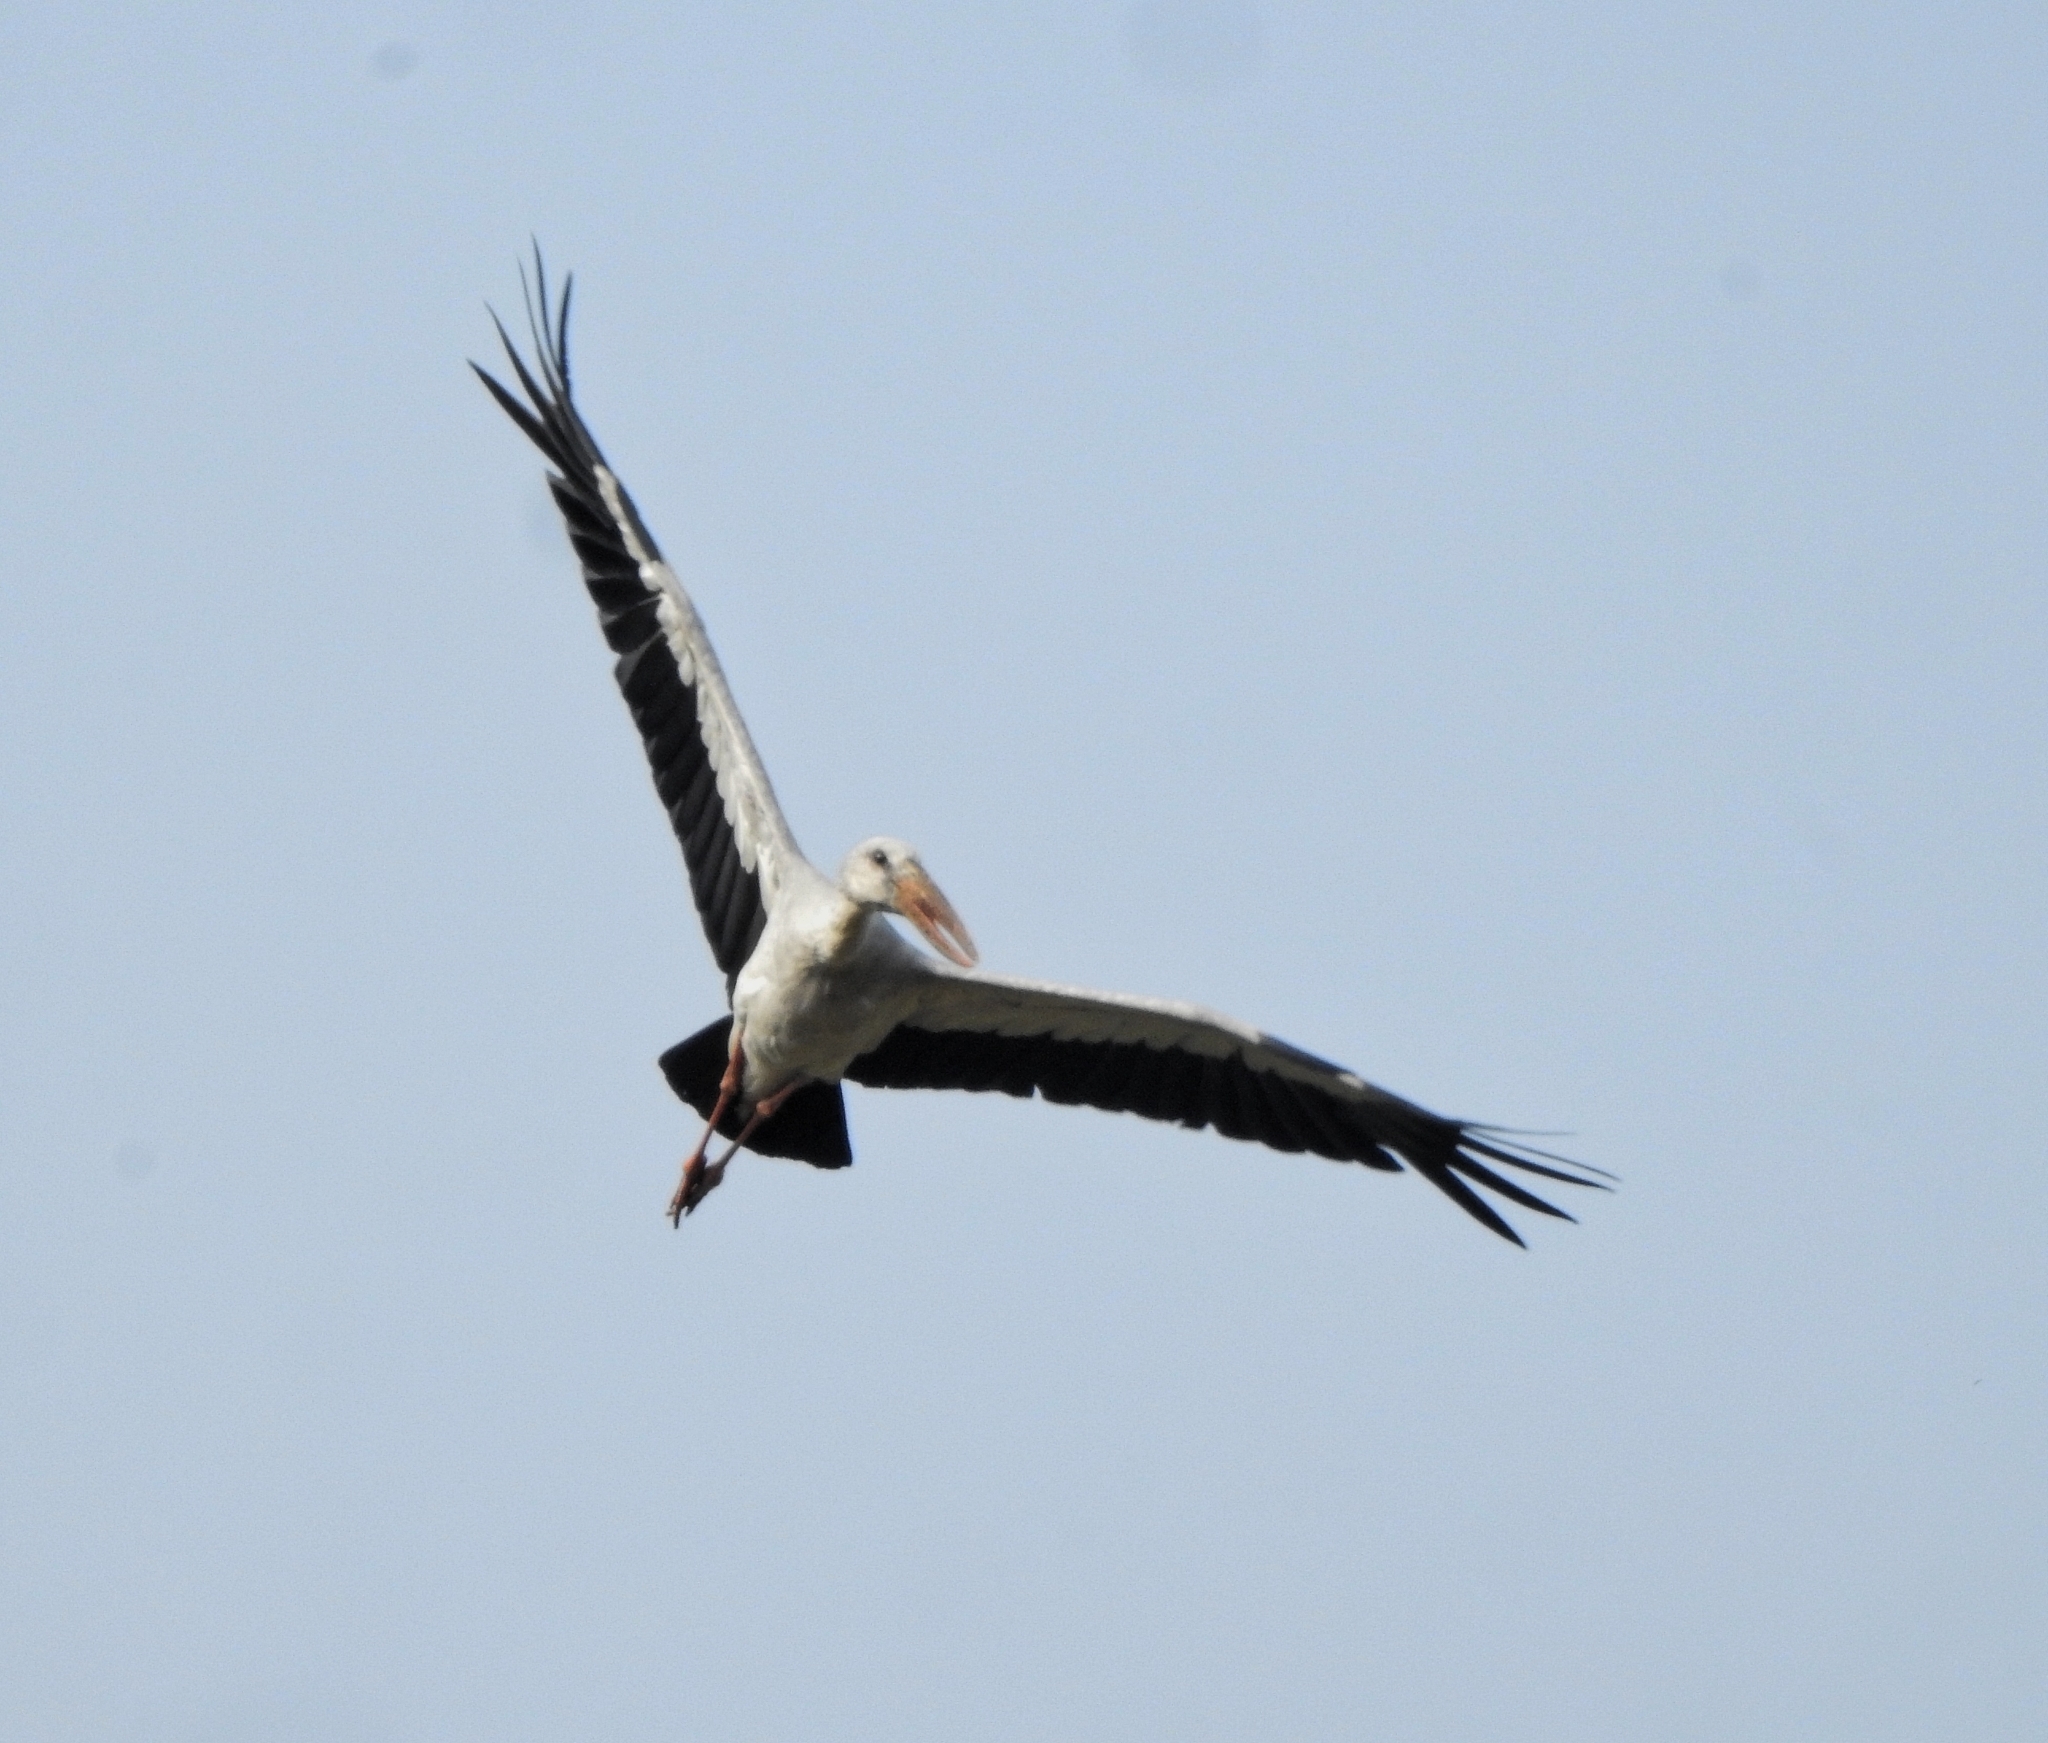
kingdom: Animalia
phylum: Chordata
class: Aves
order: Ciconiiformes
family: Ciconiidae
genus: Anastomus
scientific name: Anastomus oscitans
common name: Asian openbill
